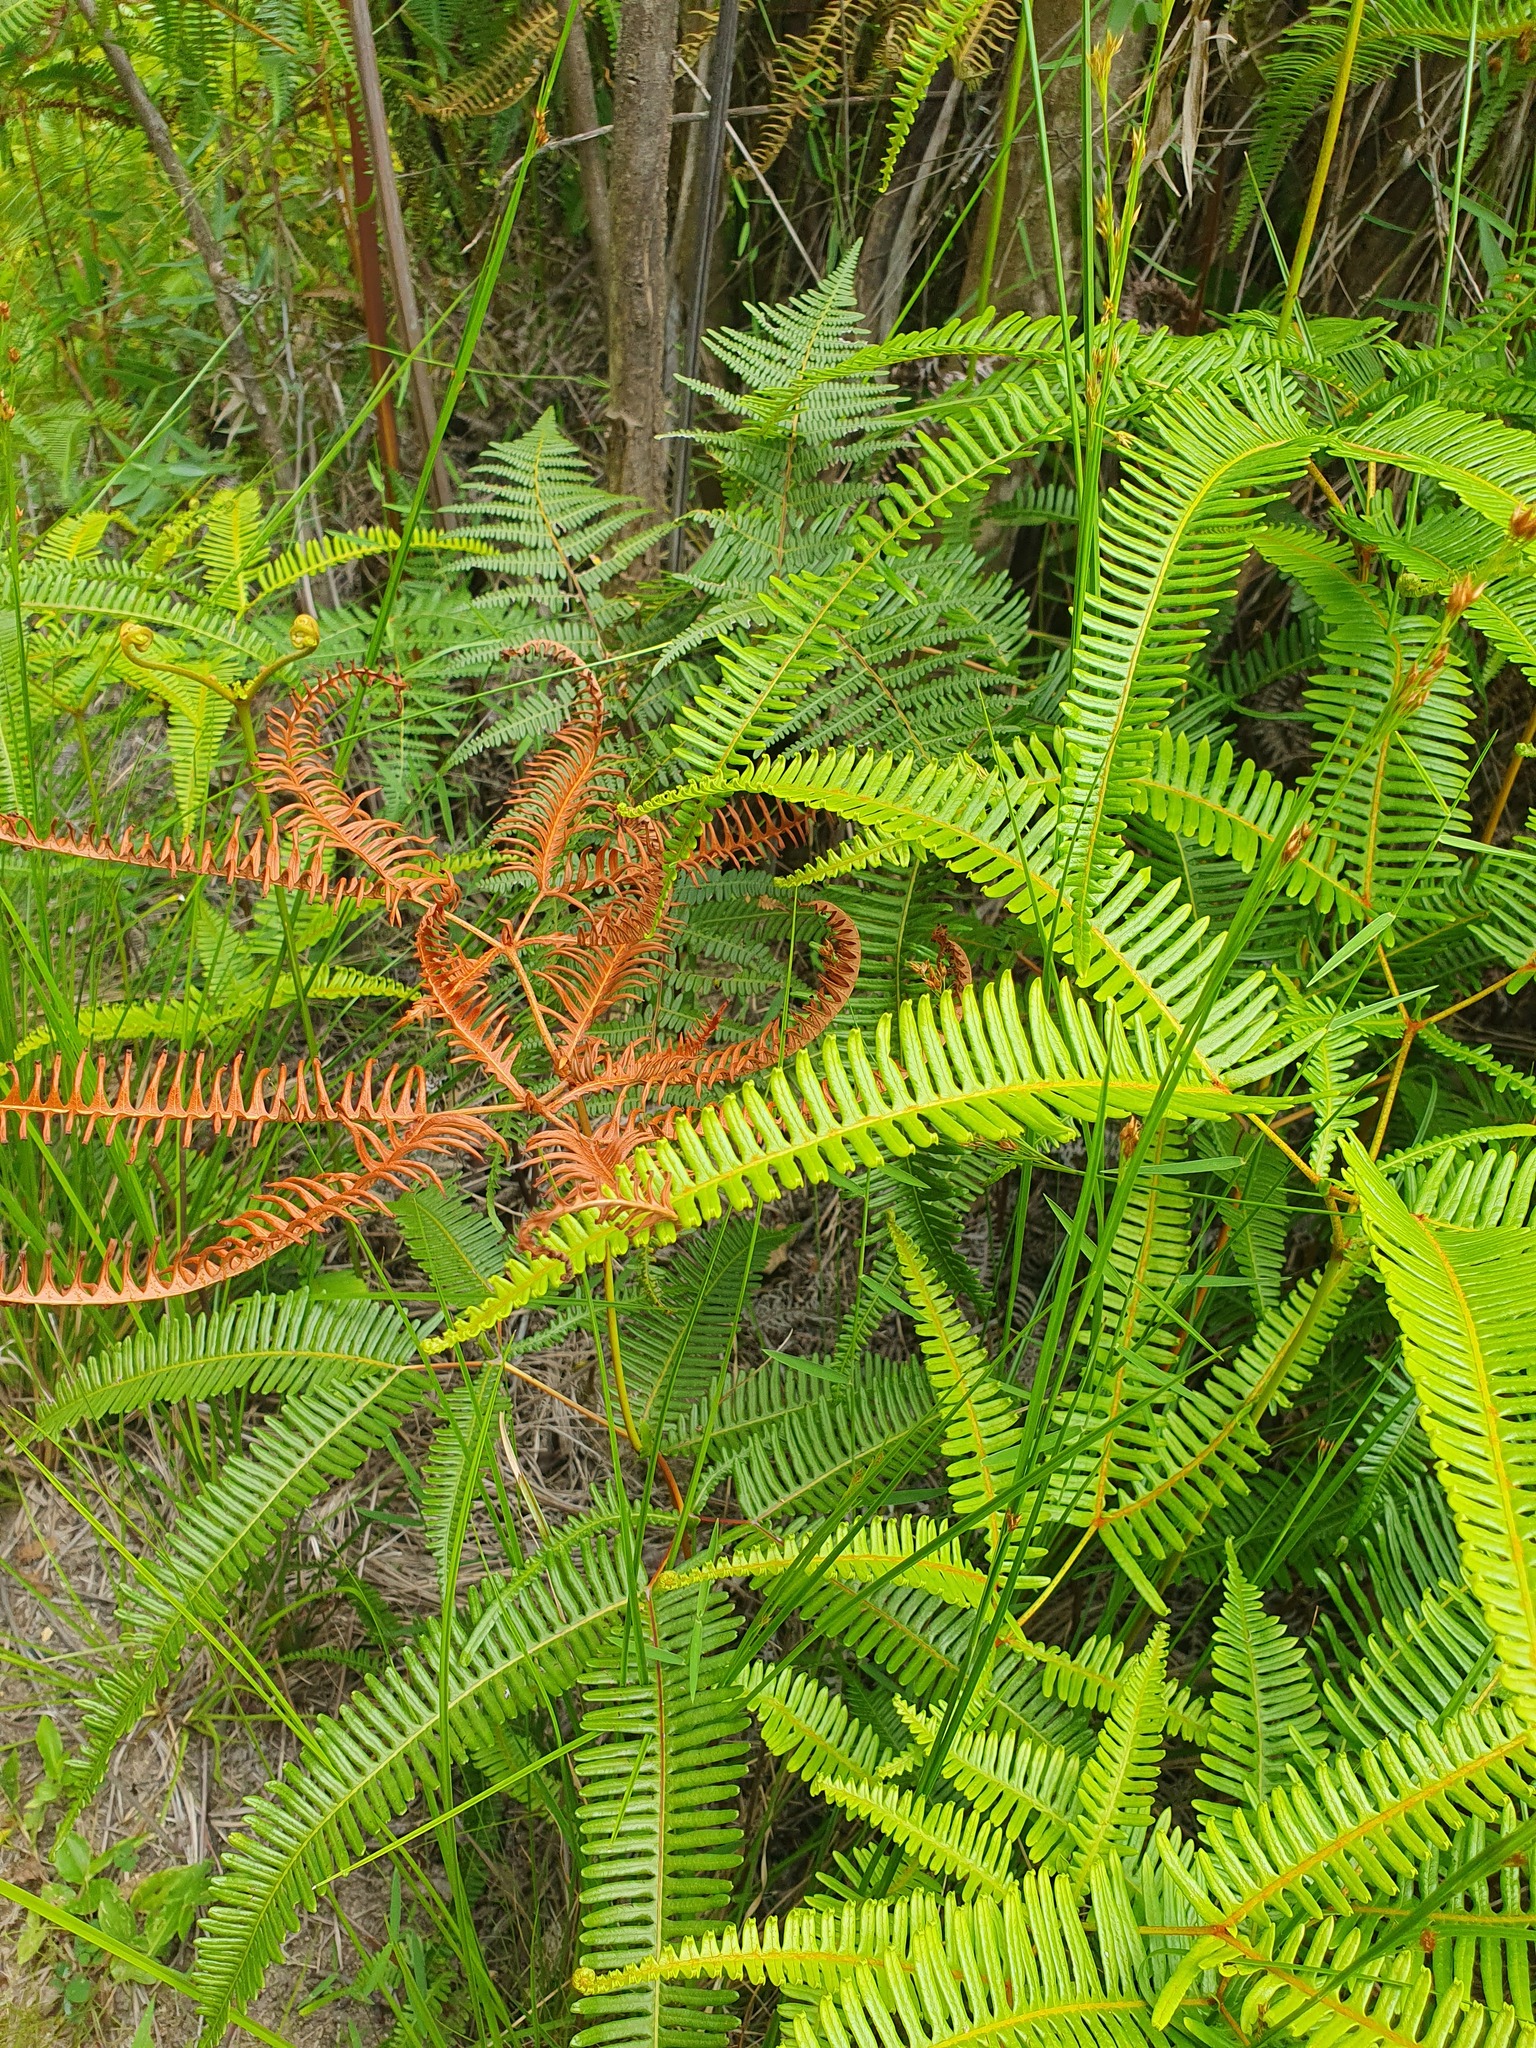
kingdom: Plantae
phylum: Tracheophyta
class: Polypodiopsida
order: Gleicheniales
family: Gleicheniaceae
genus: Dicranopteris
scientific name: Dicranopteris linearis
